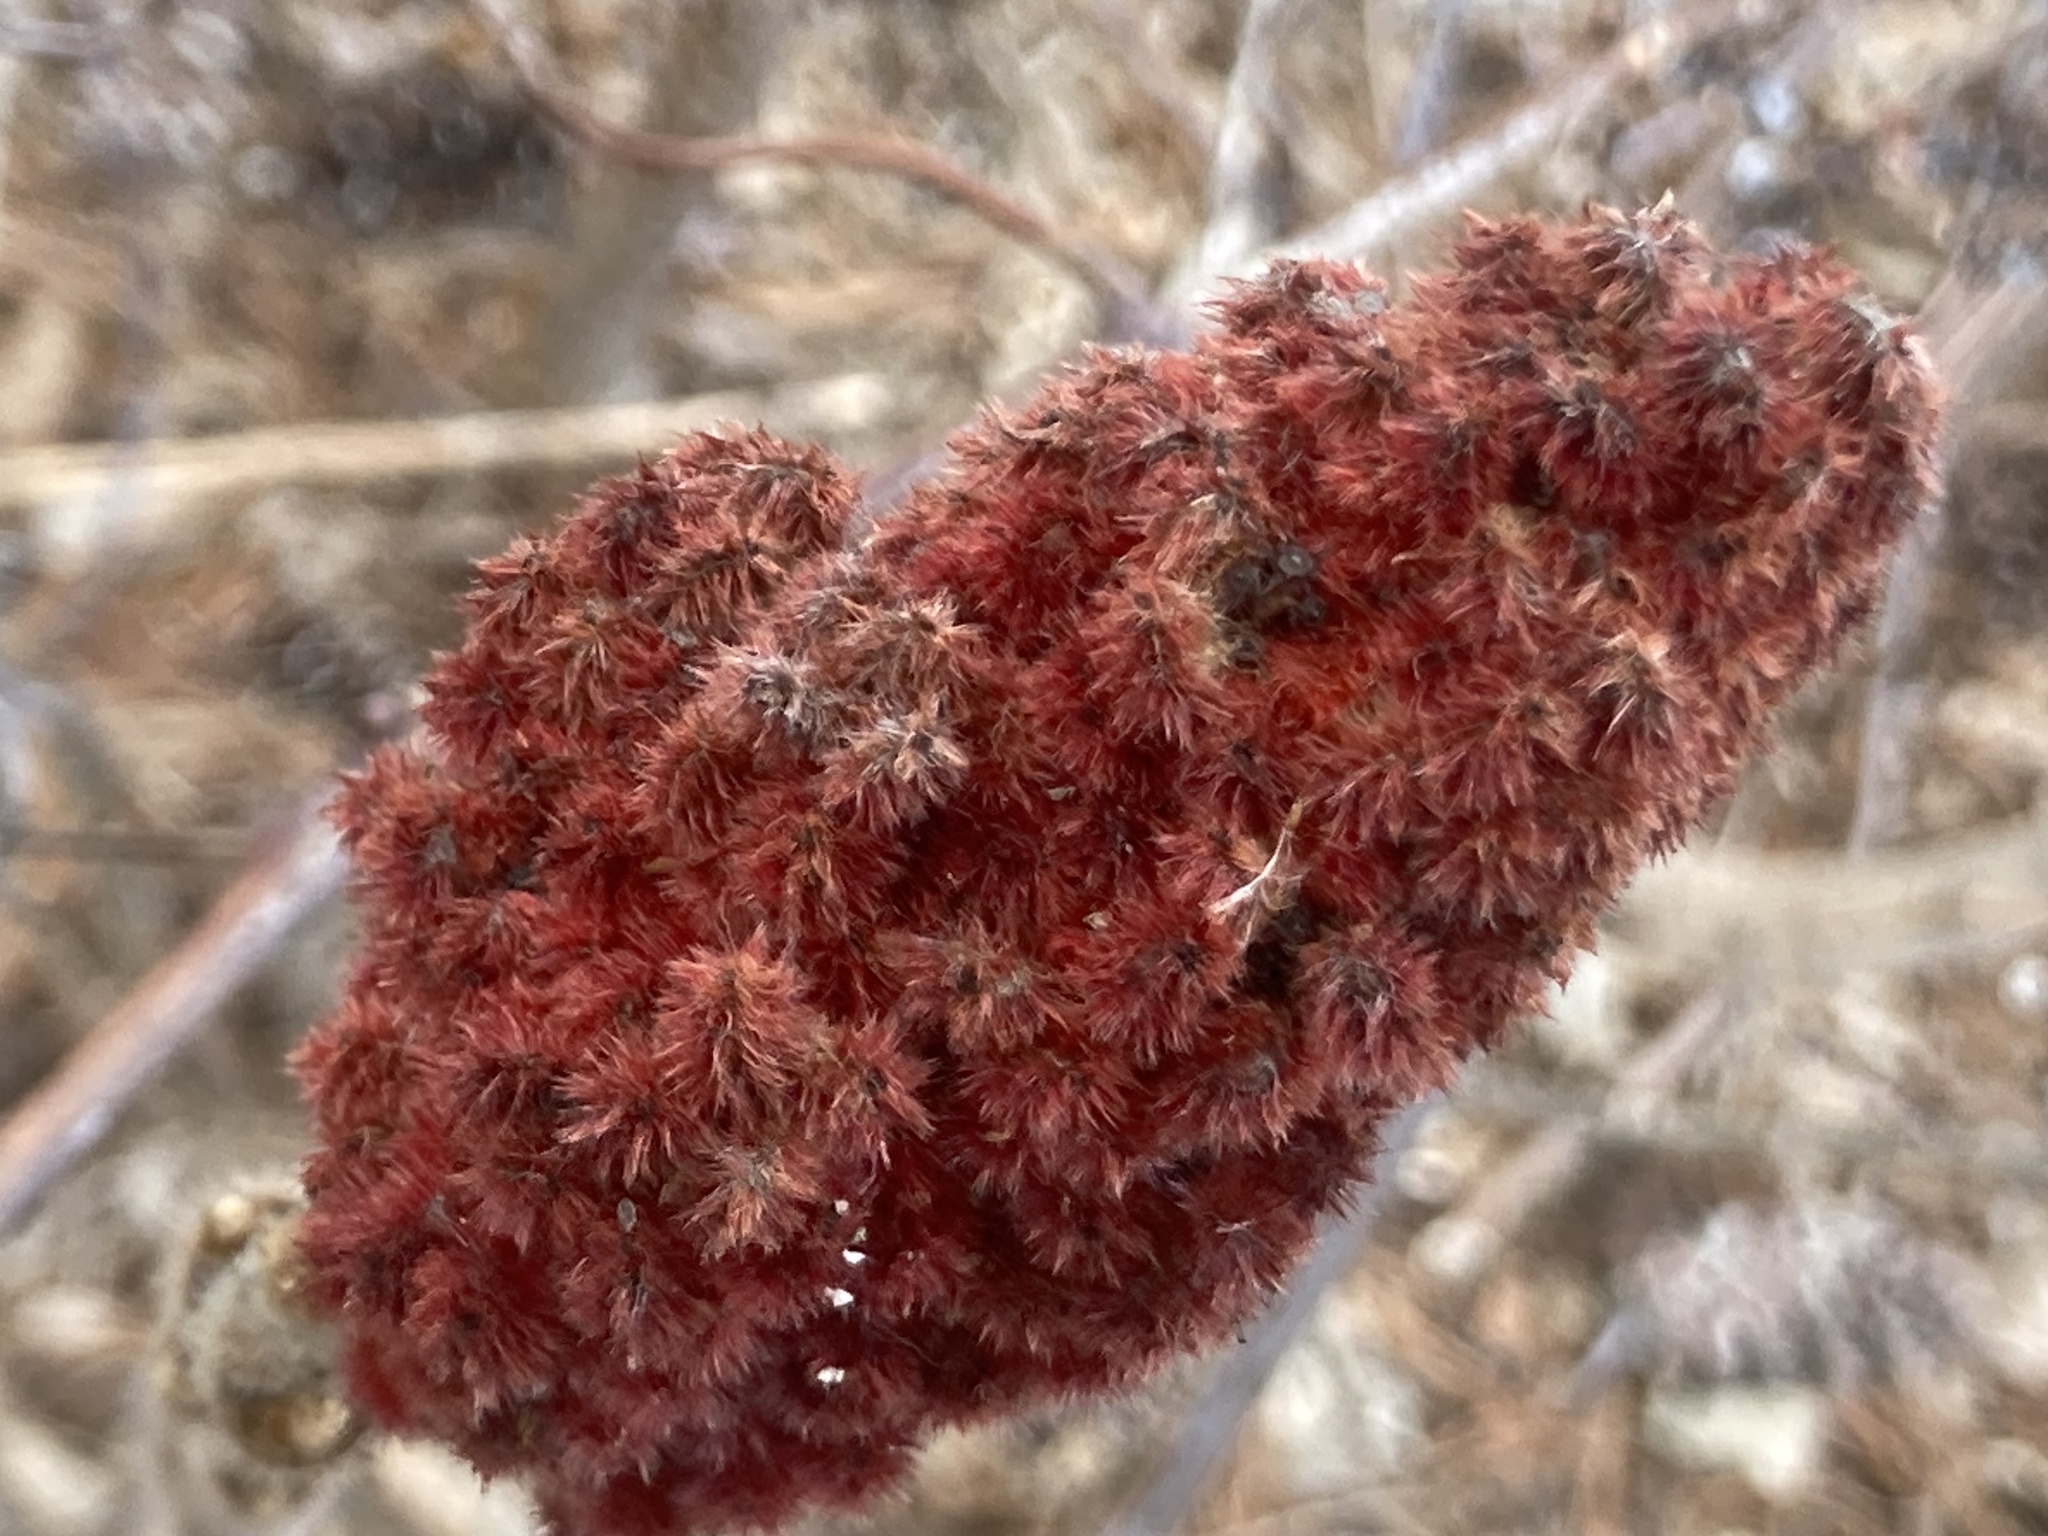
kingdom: Plantae
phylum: Tracheophyta
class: Magnoliopsida
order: Sapindales
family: Anacardiaceae
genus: Rhus
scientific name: Rhus typhina
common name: Staghorn sumac
